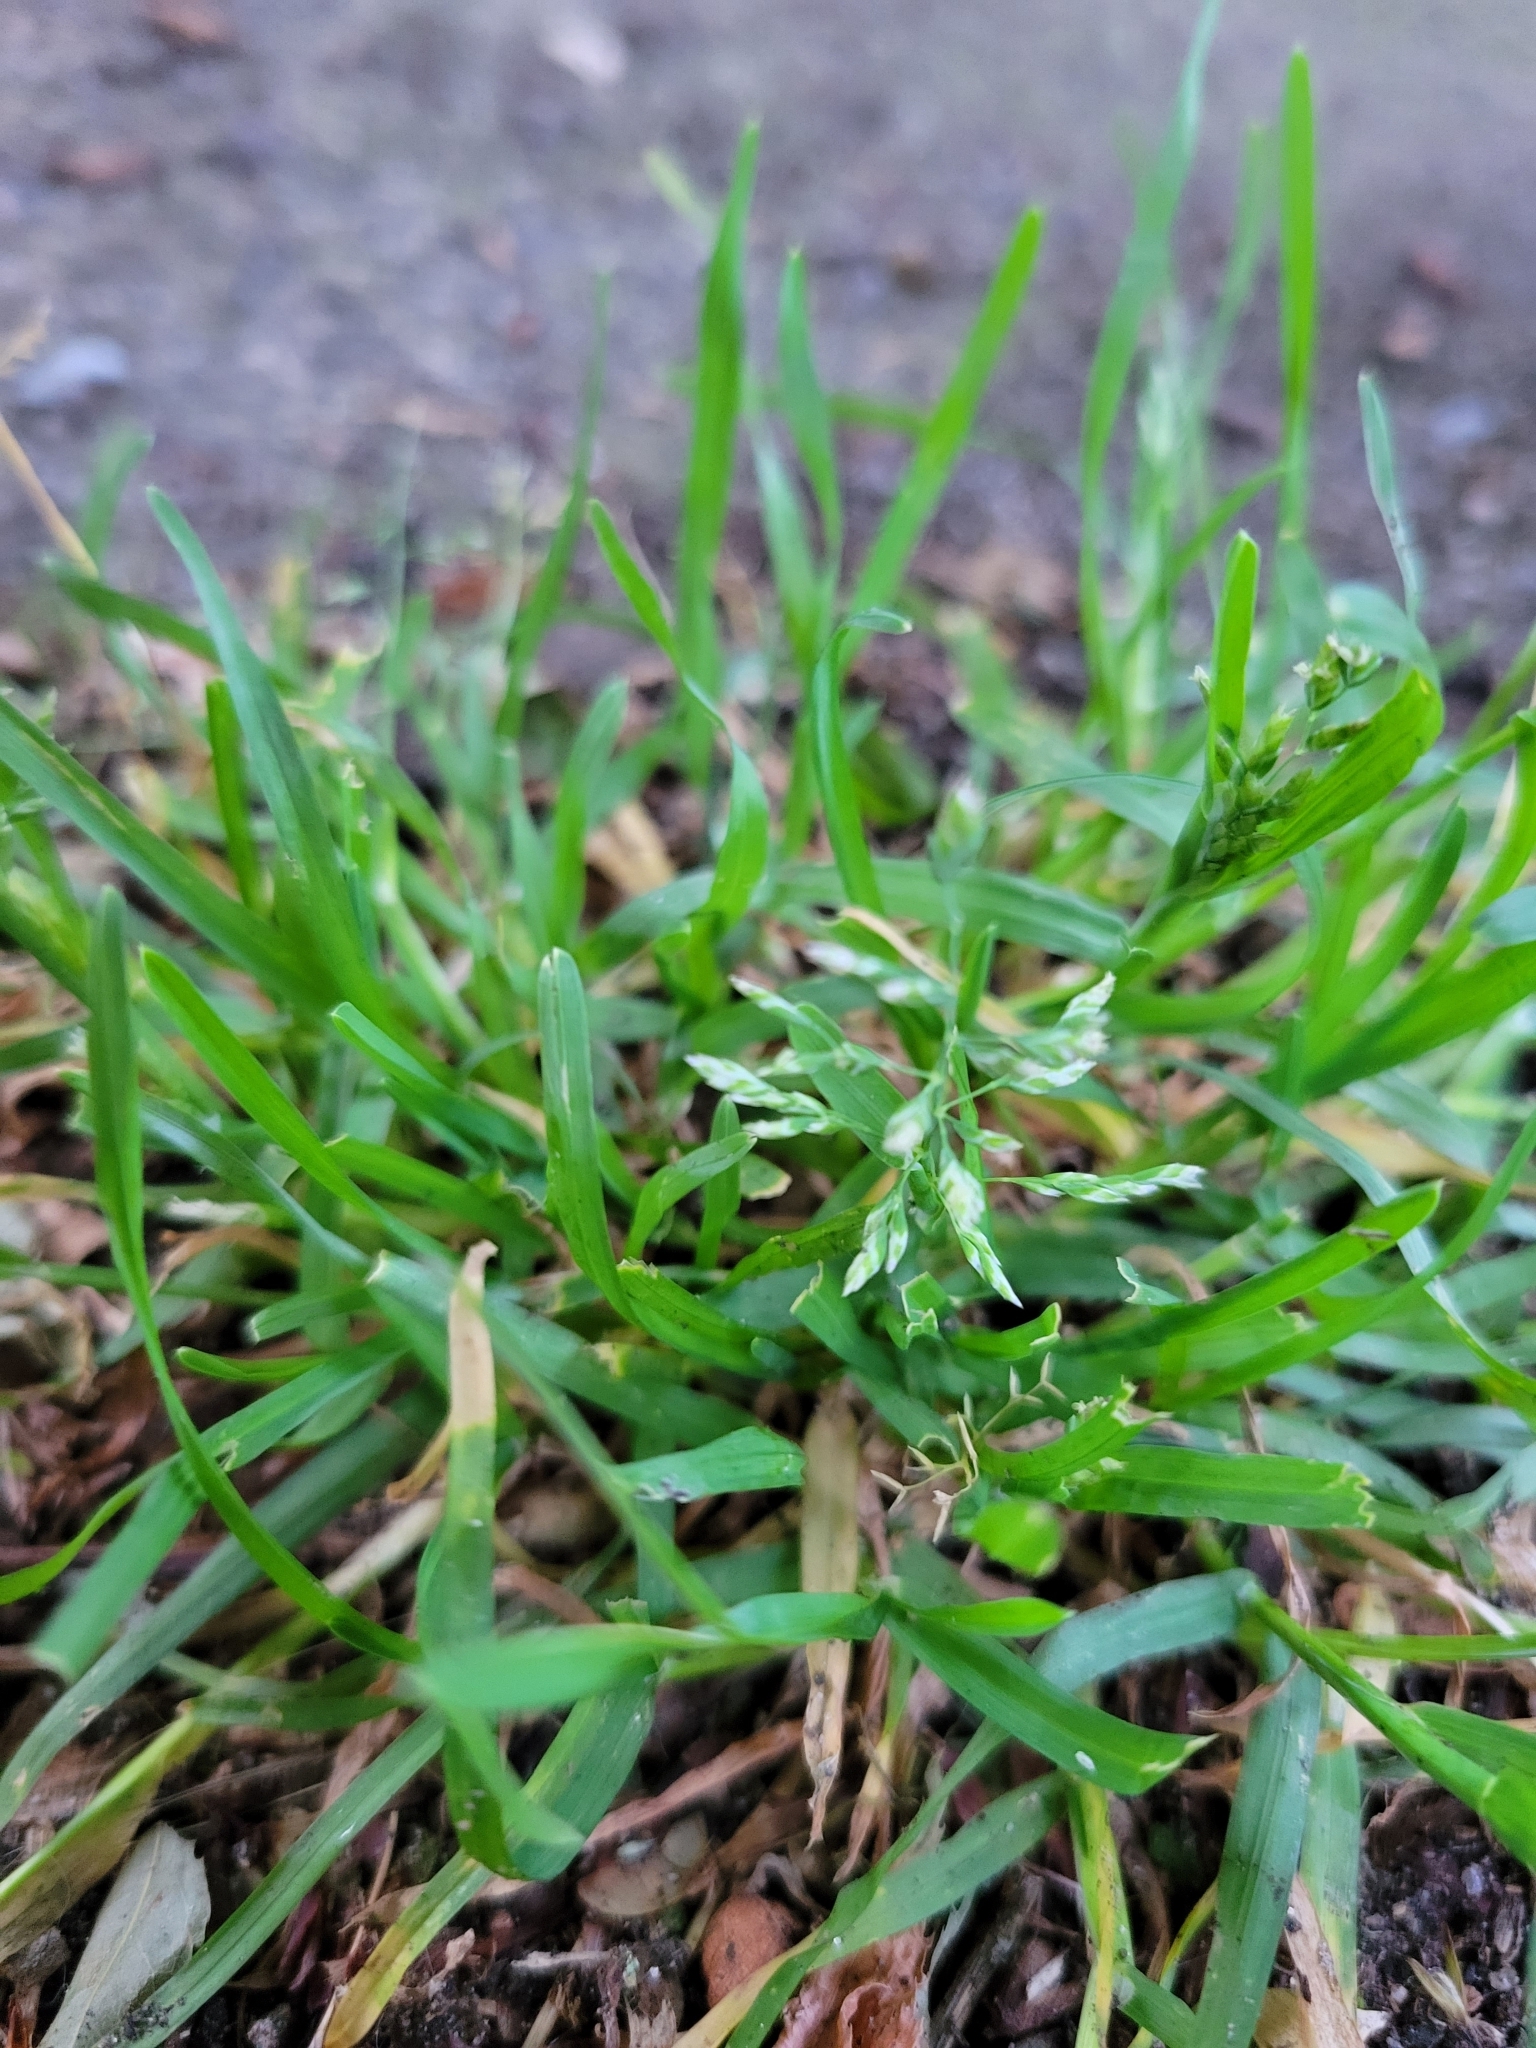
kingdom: Plantae
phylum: Tracheophyta
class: Liliopsida
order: Poales
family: Poaceae
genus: Poa
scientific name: Poa annua
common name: Annual bluegrass
